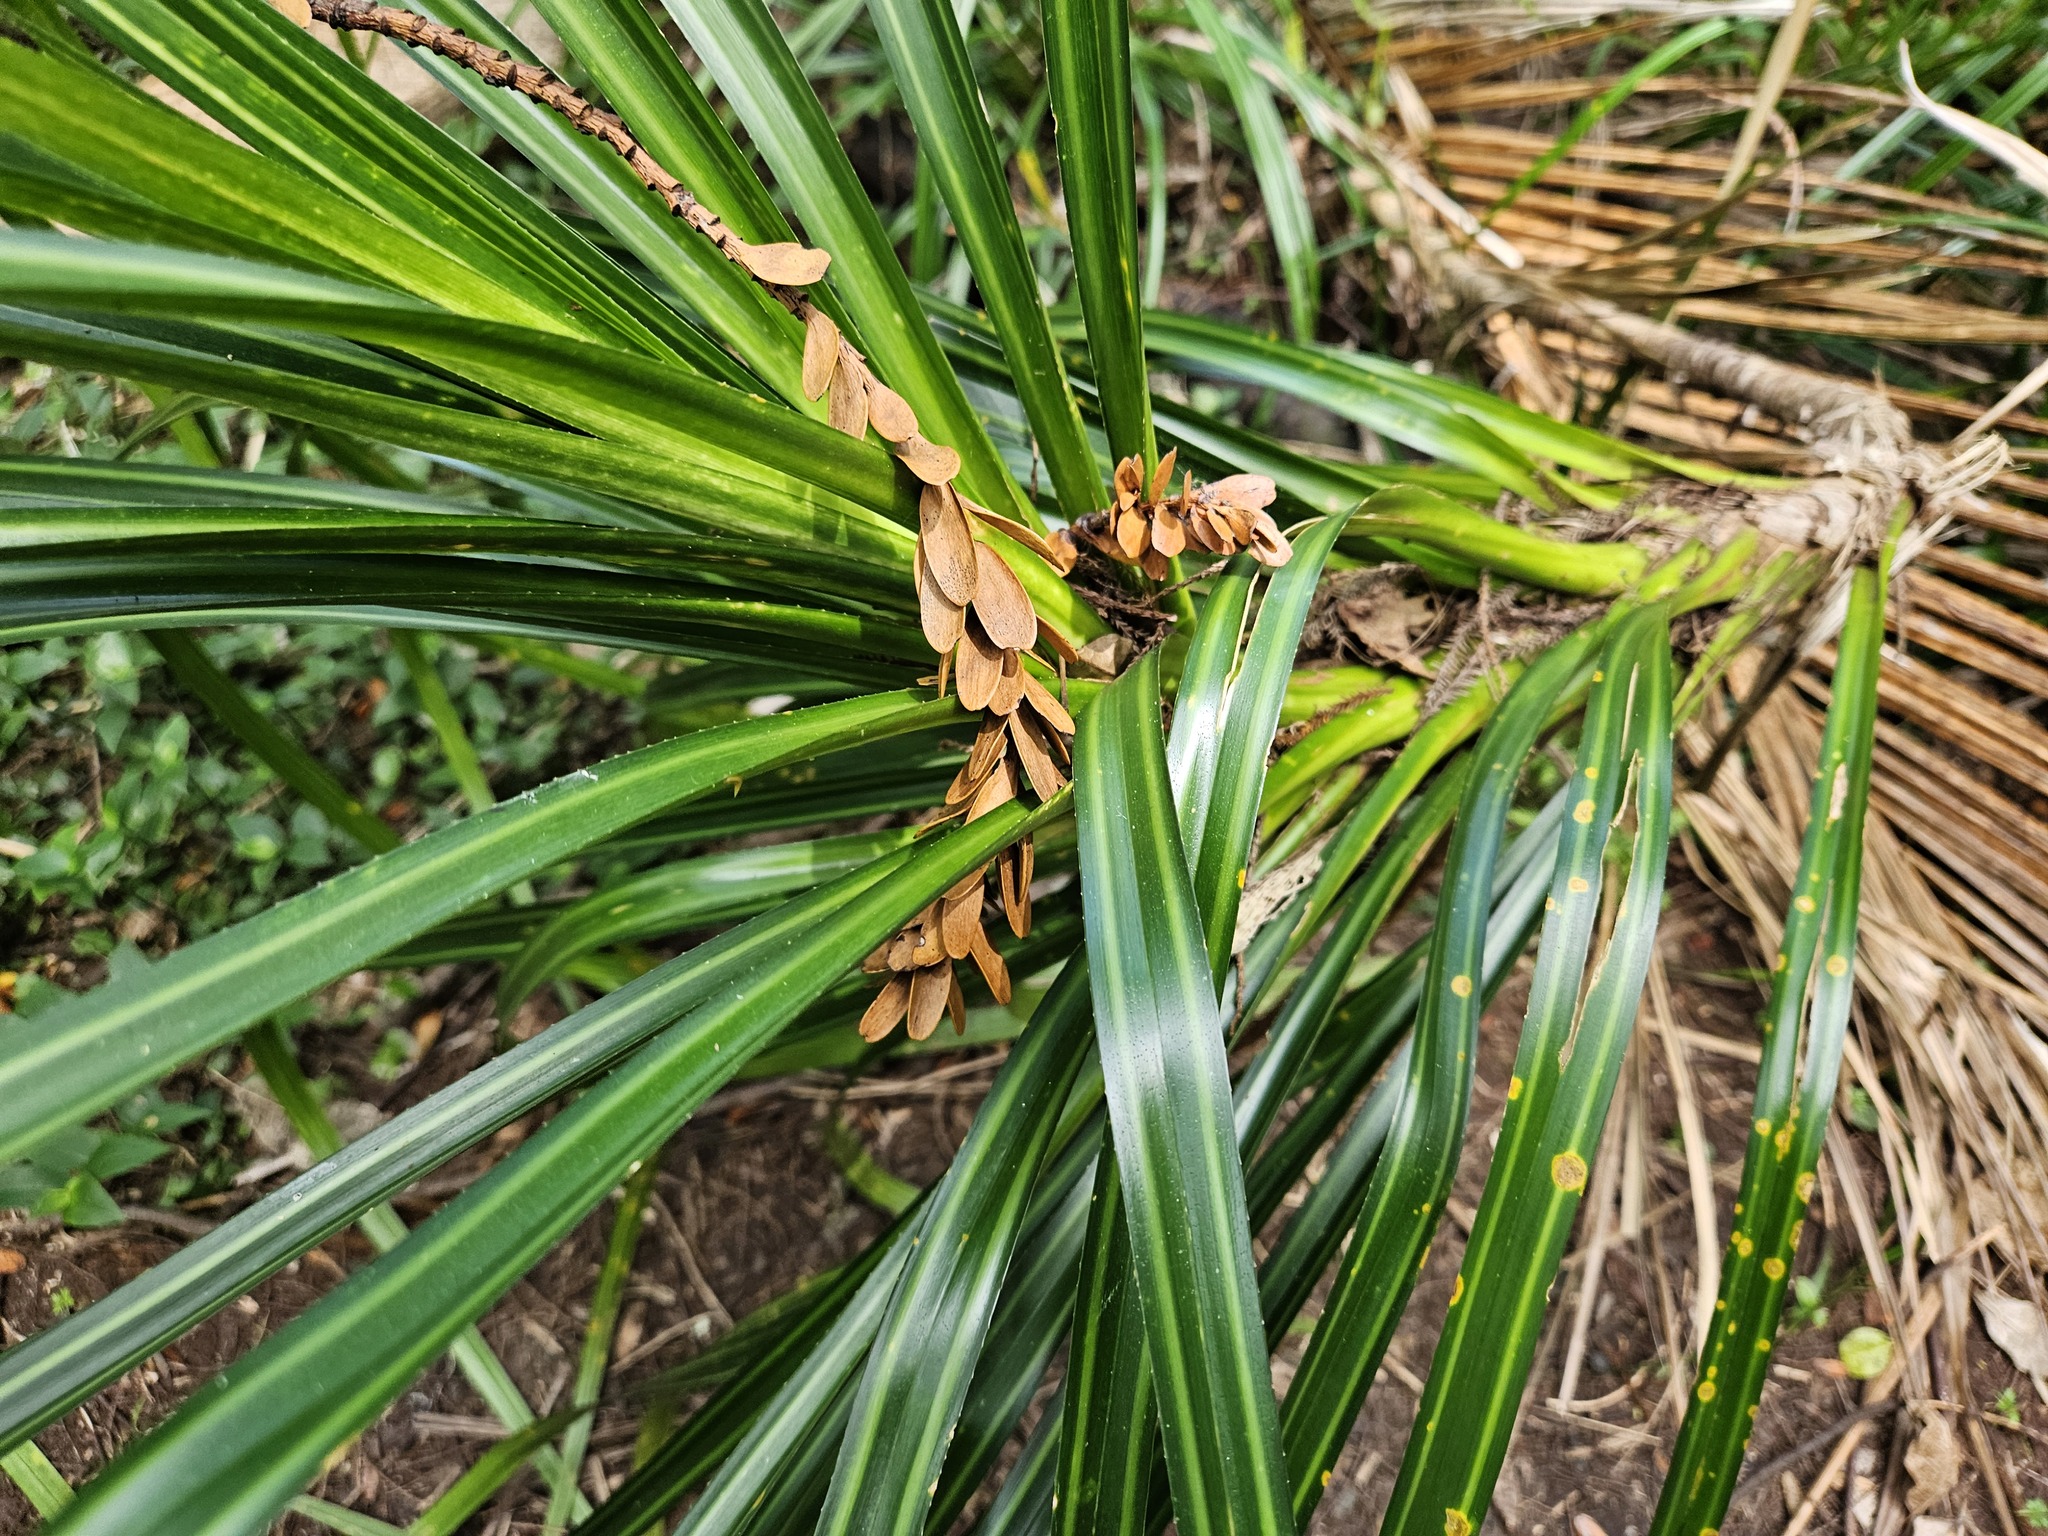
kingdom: Plantae
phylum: Tracheophyta
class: Liliopsida
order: Pandanales
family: Pandanaceae
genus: Freycinetia
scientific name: Freycinetia banksii
